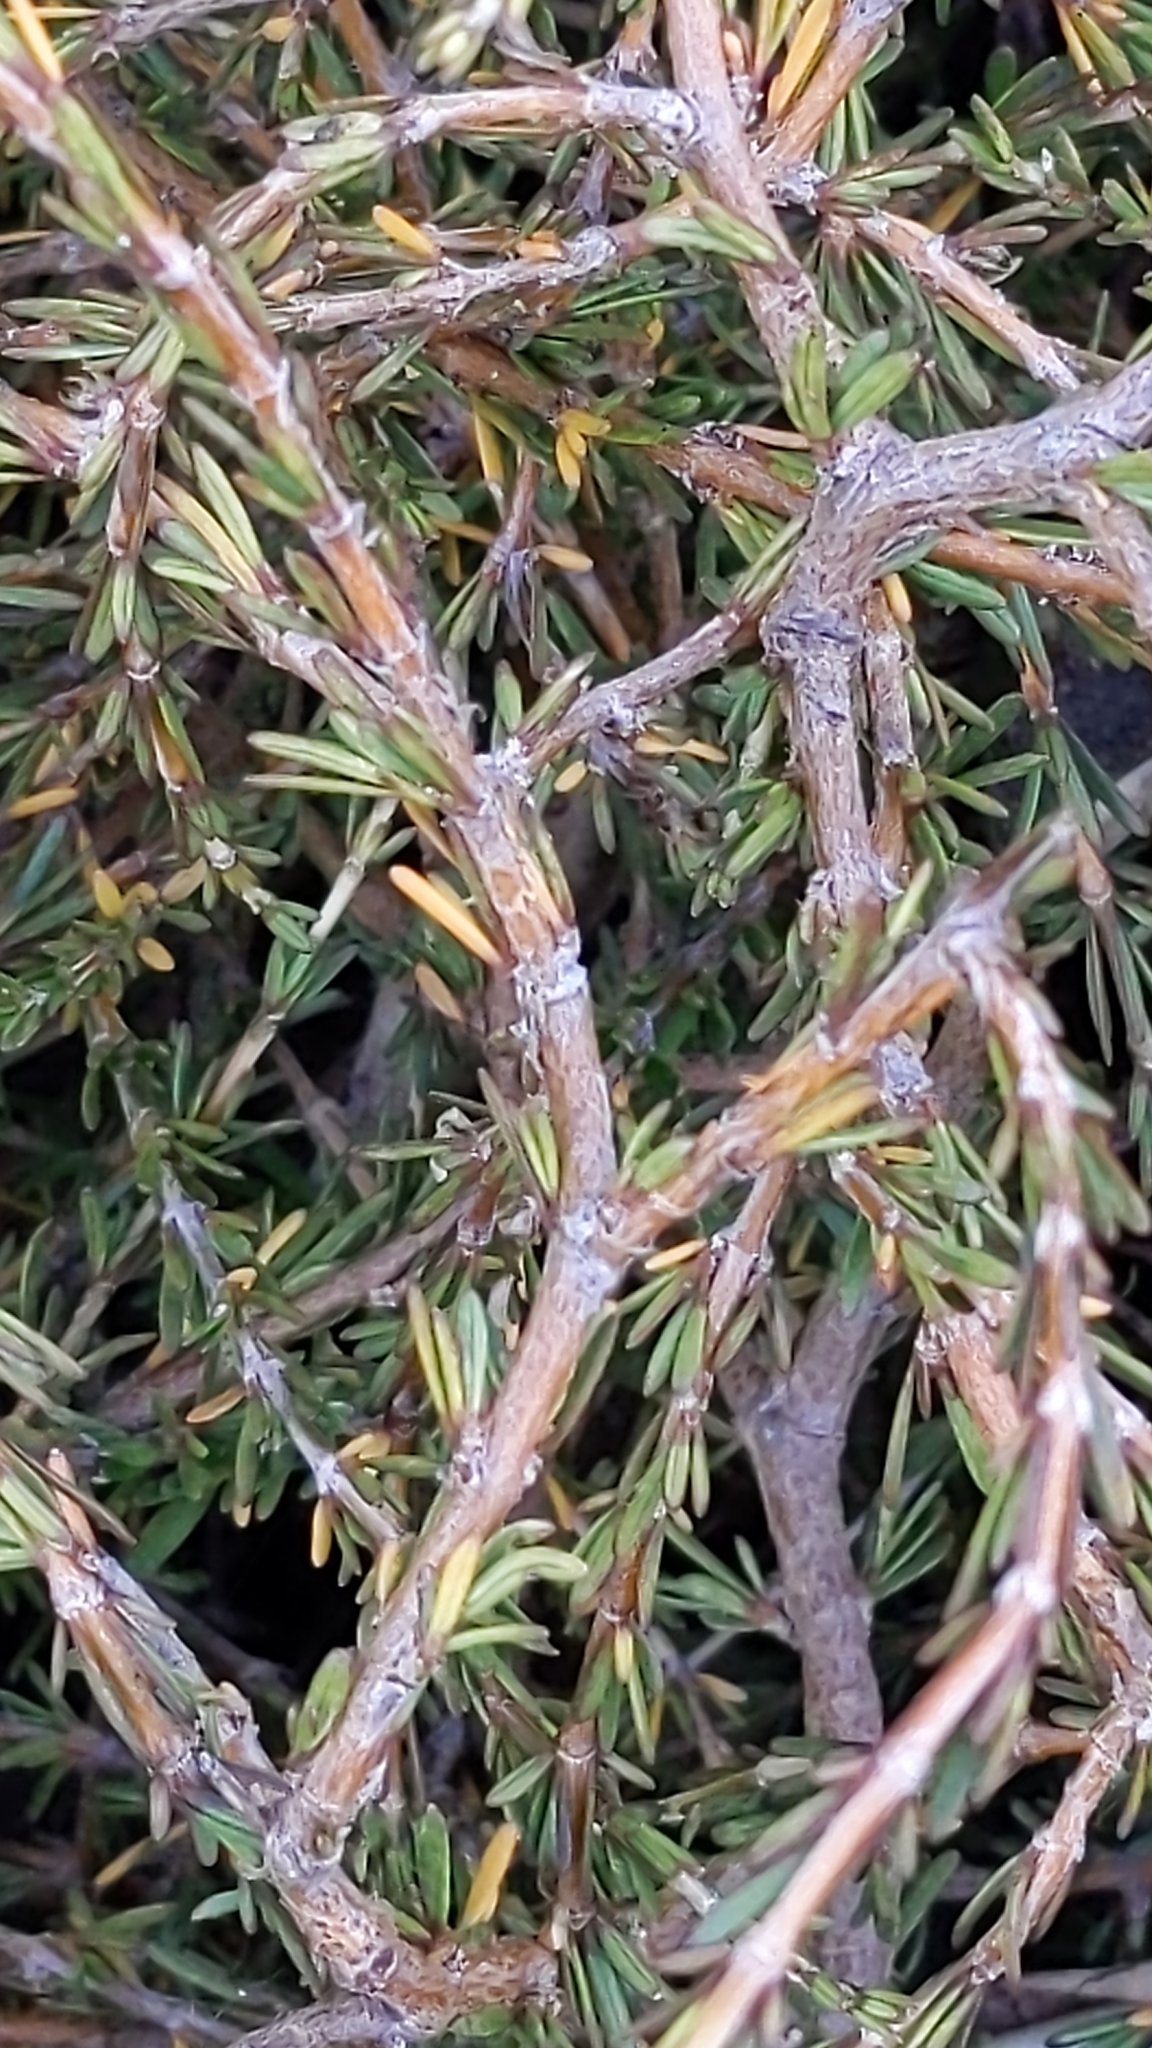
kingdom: Plantae
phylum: Tracheophyta
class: Magnoliopsida
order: Gentianales
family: Rubiaceae
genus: Coprosma
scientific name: Coprosma acerosa
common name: Sand coprosma
